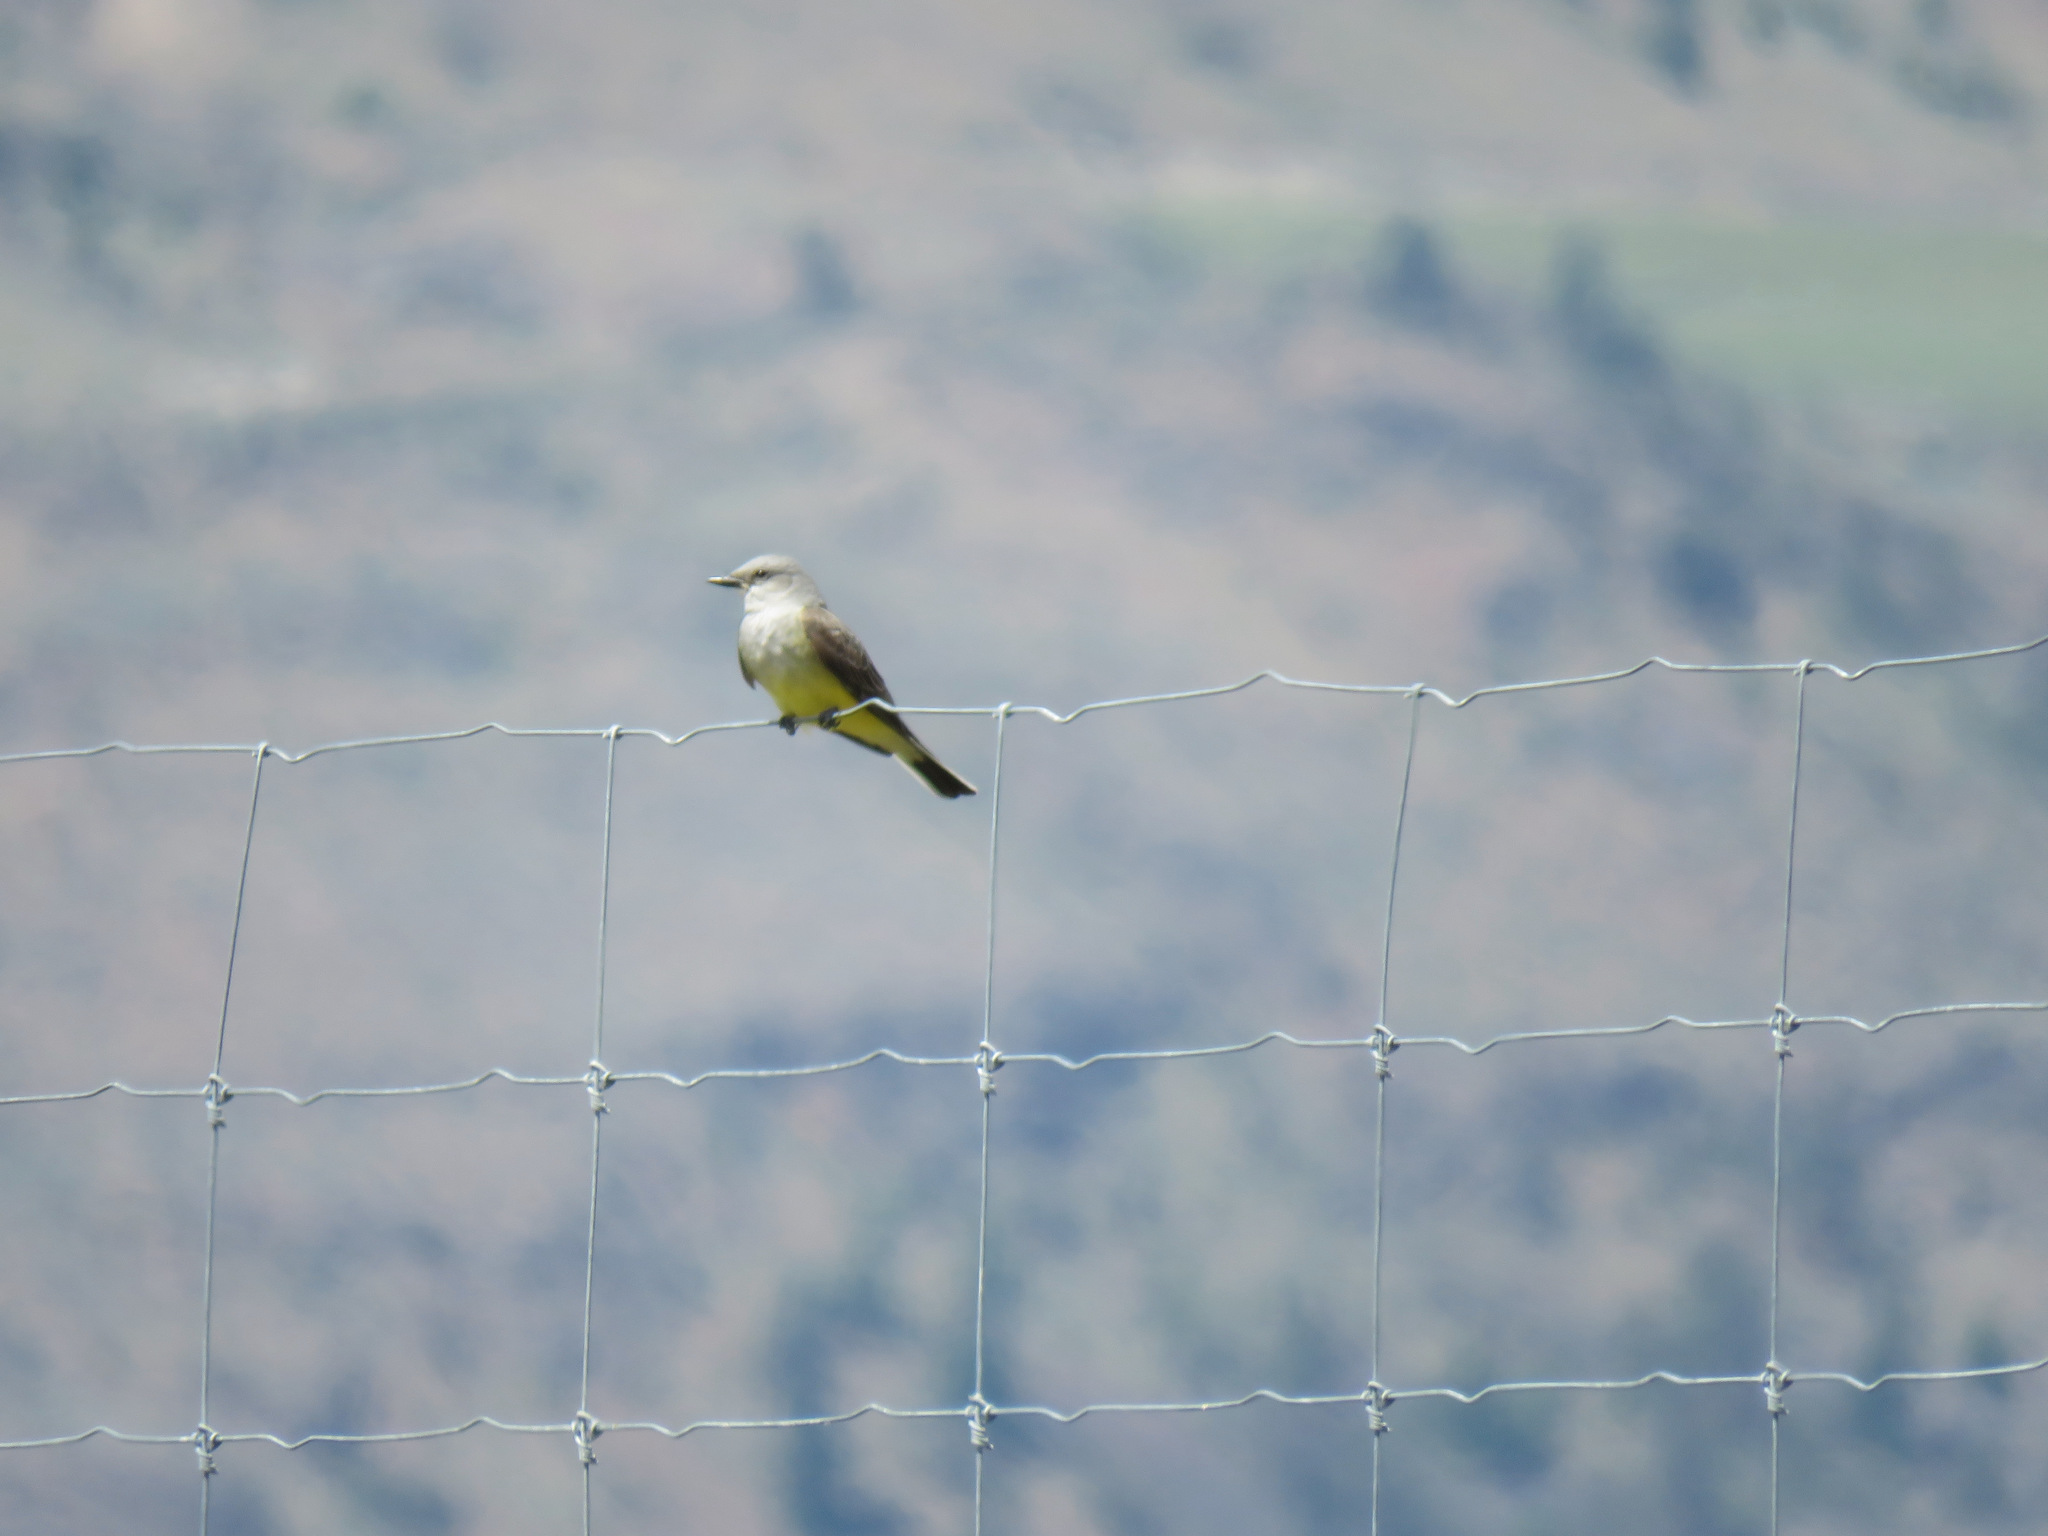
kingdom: Animalia
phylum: Chordata
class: Aves
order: Passeriformes
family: Tyrannidae
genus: Tyrannus
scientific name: Tyrannus verticalis
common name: Western kingbird
